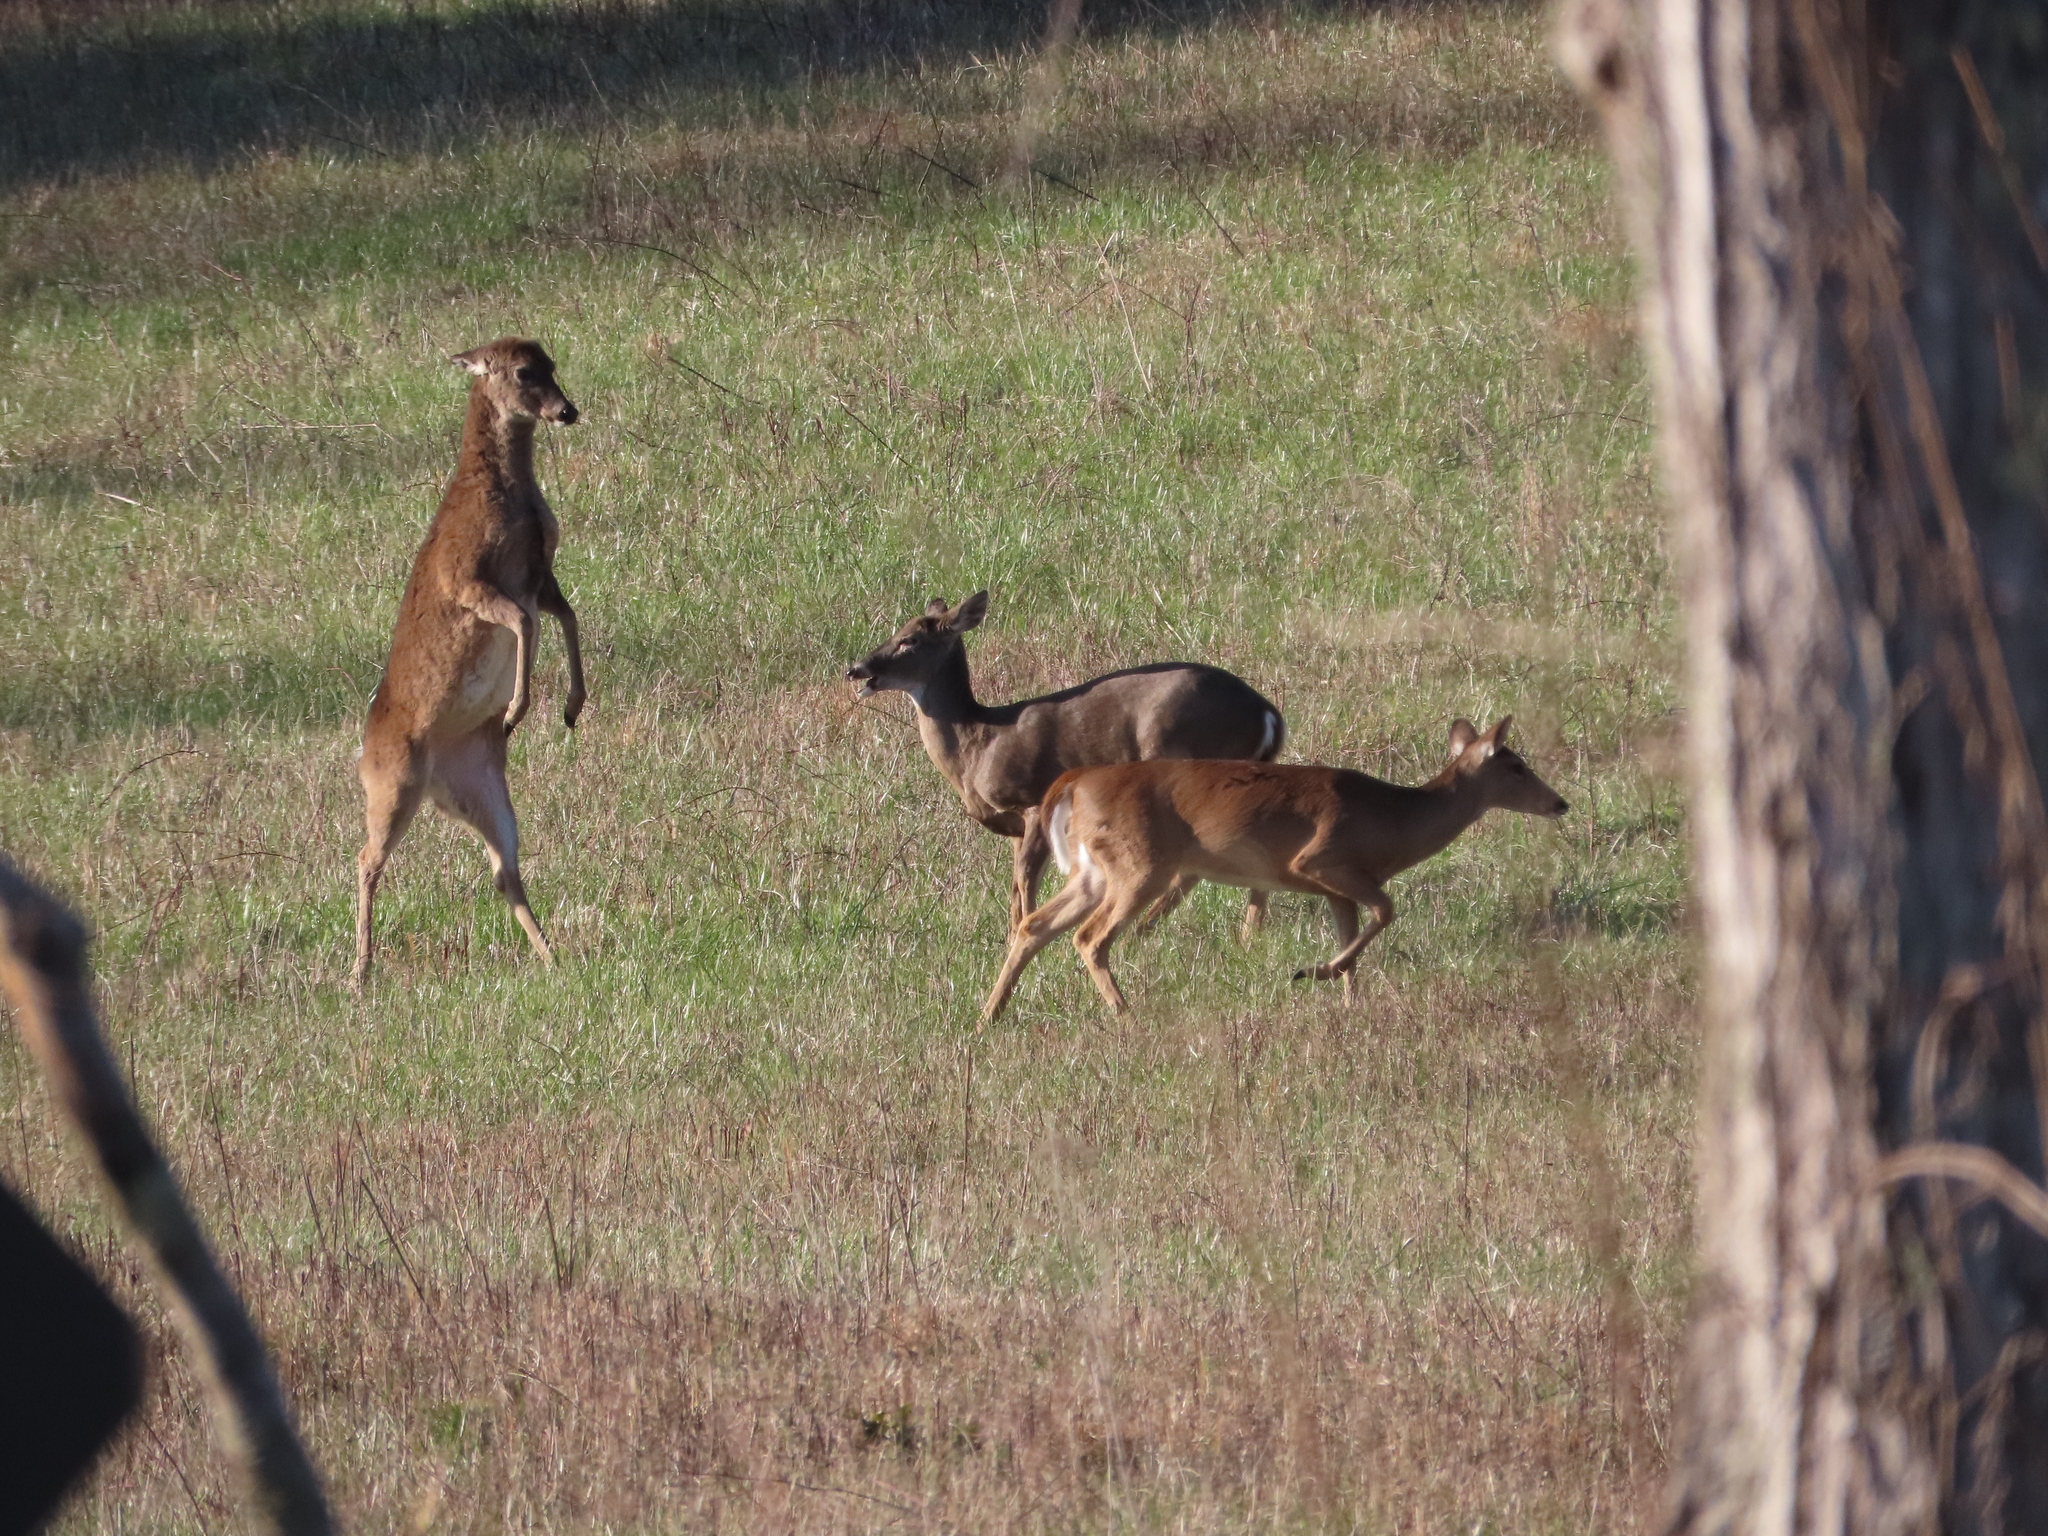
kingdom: Animalia
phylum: Chordata
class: Mammalia
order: Artiodactyla
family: Cervidae
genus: Odocoileus
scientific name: Odocoileus virginianus
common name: White-tailed deer
